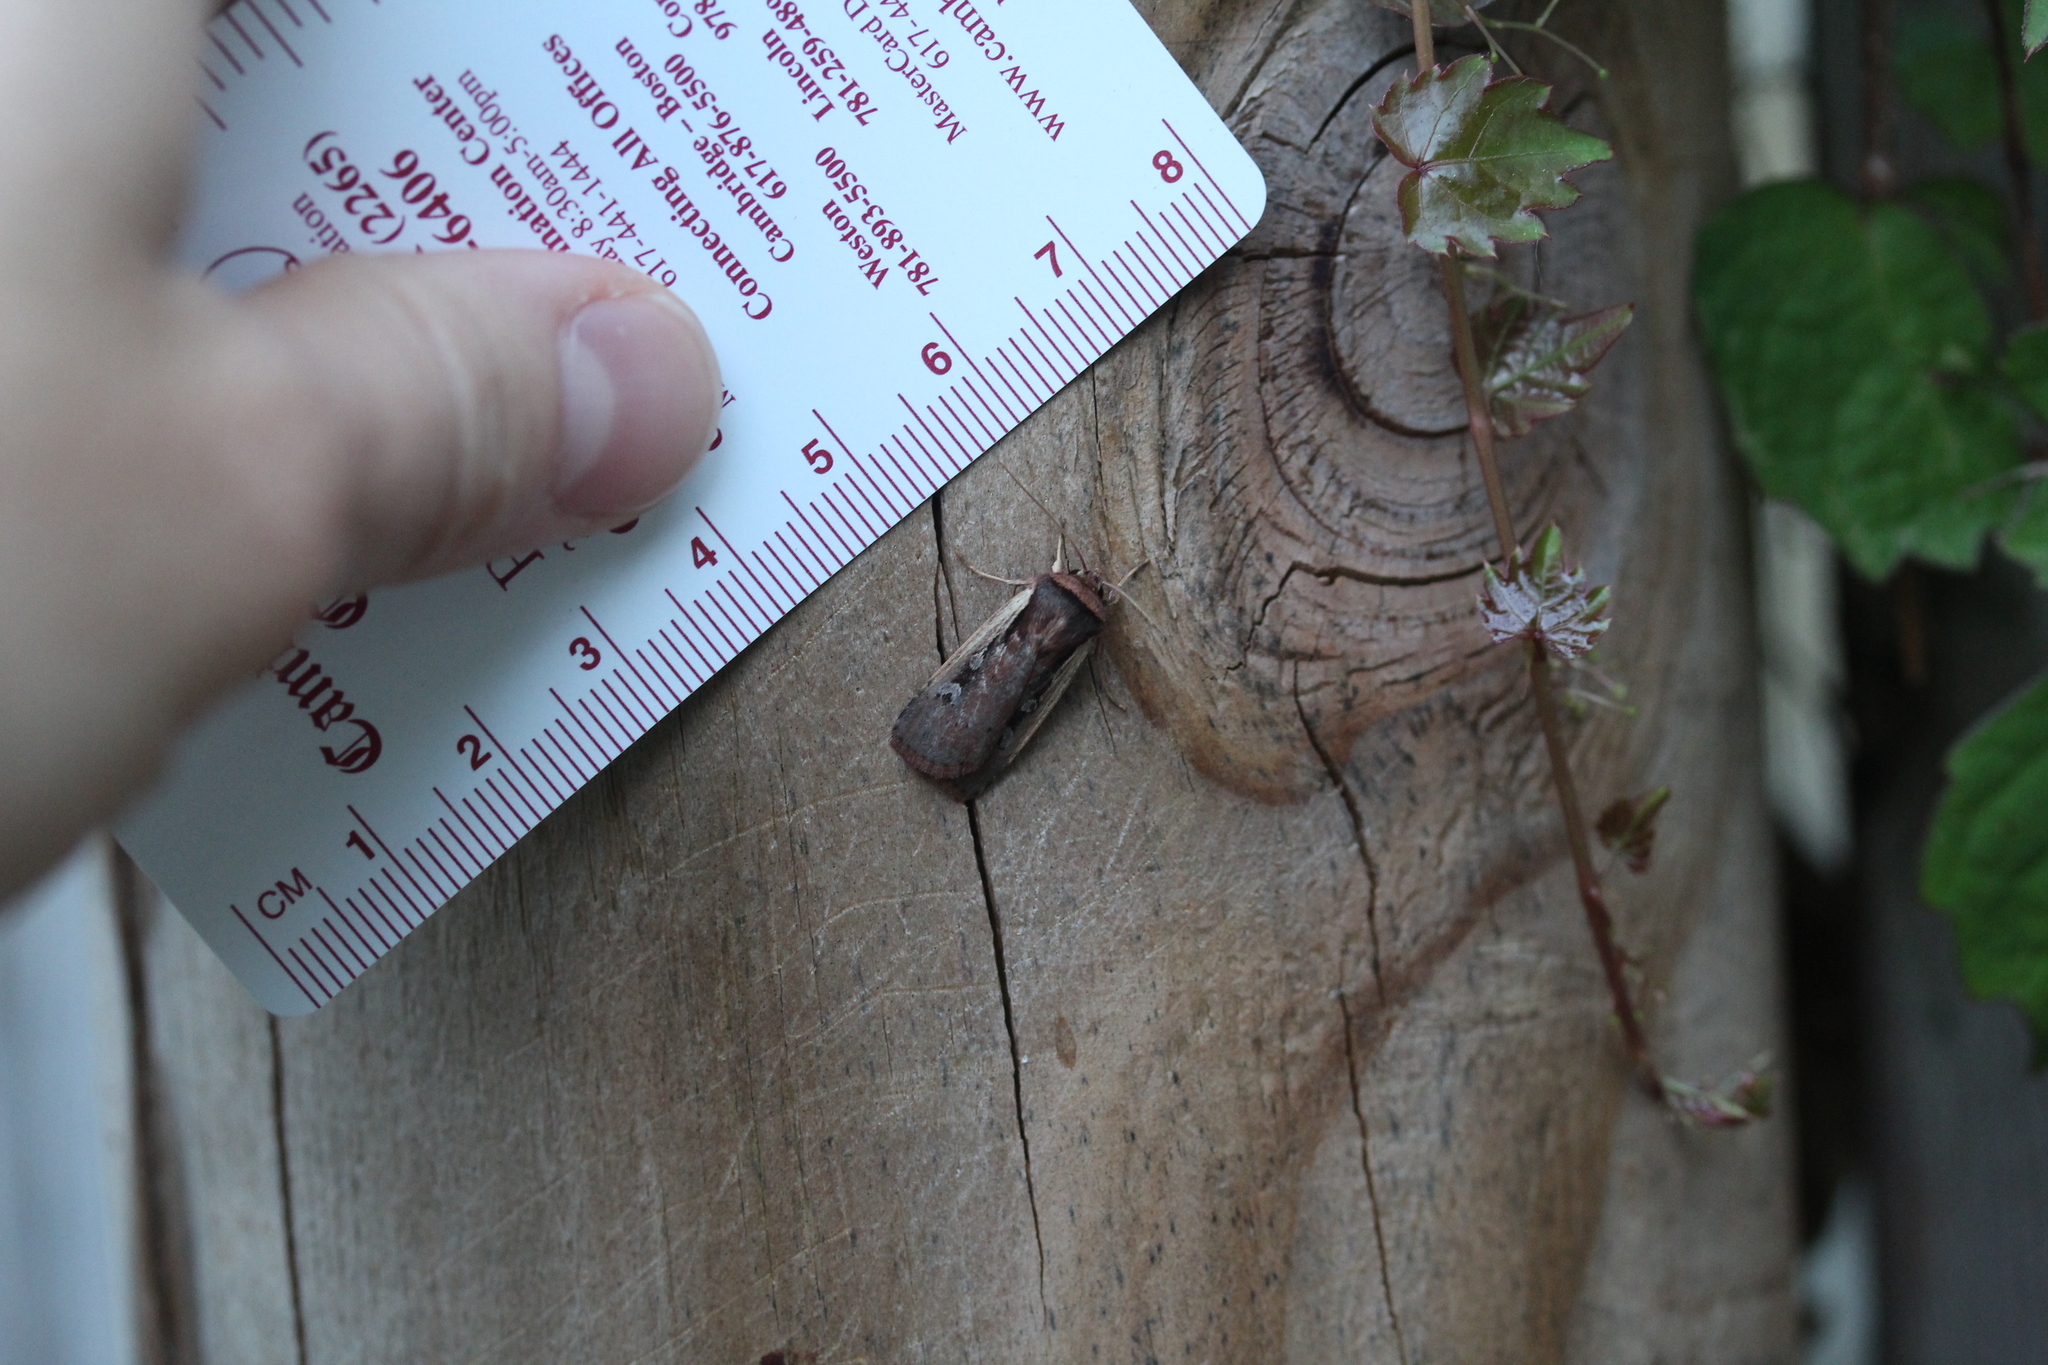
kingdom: Animalia
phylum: Arthropoda
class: Insecta
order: Lepidoptera
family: Noctuidae
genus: Ochropleura
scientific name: Ochropleura implecta
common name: Flame-shouldered dart
